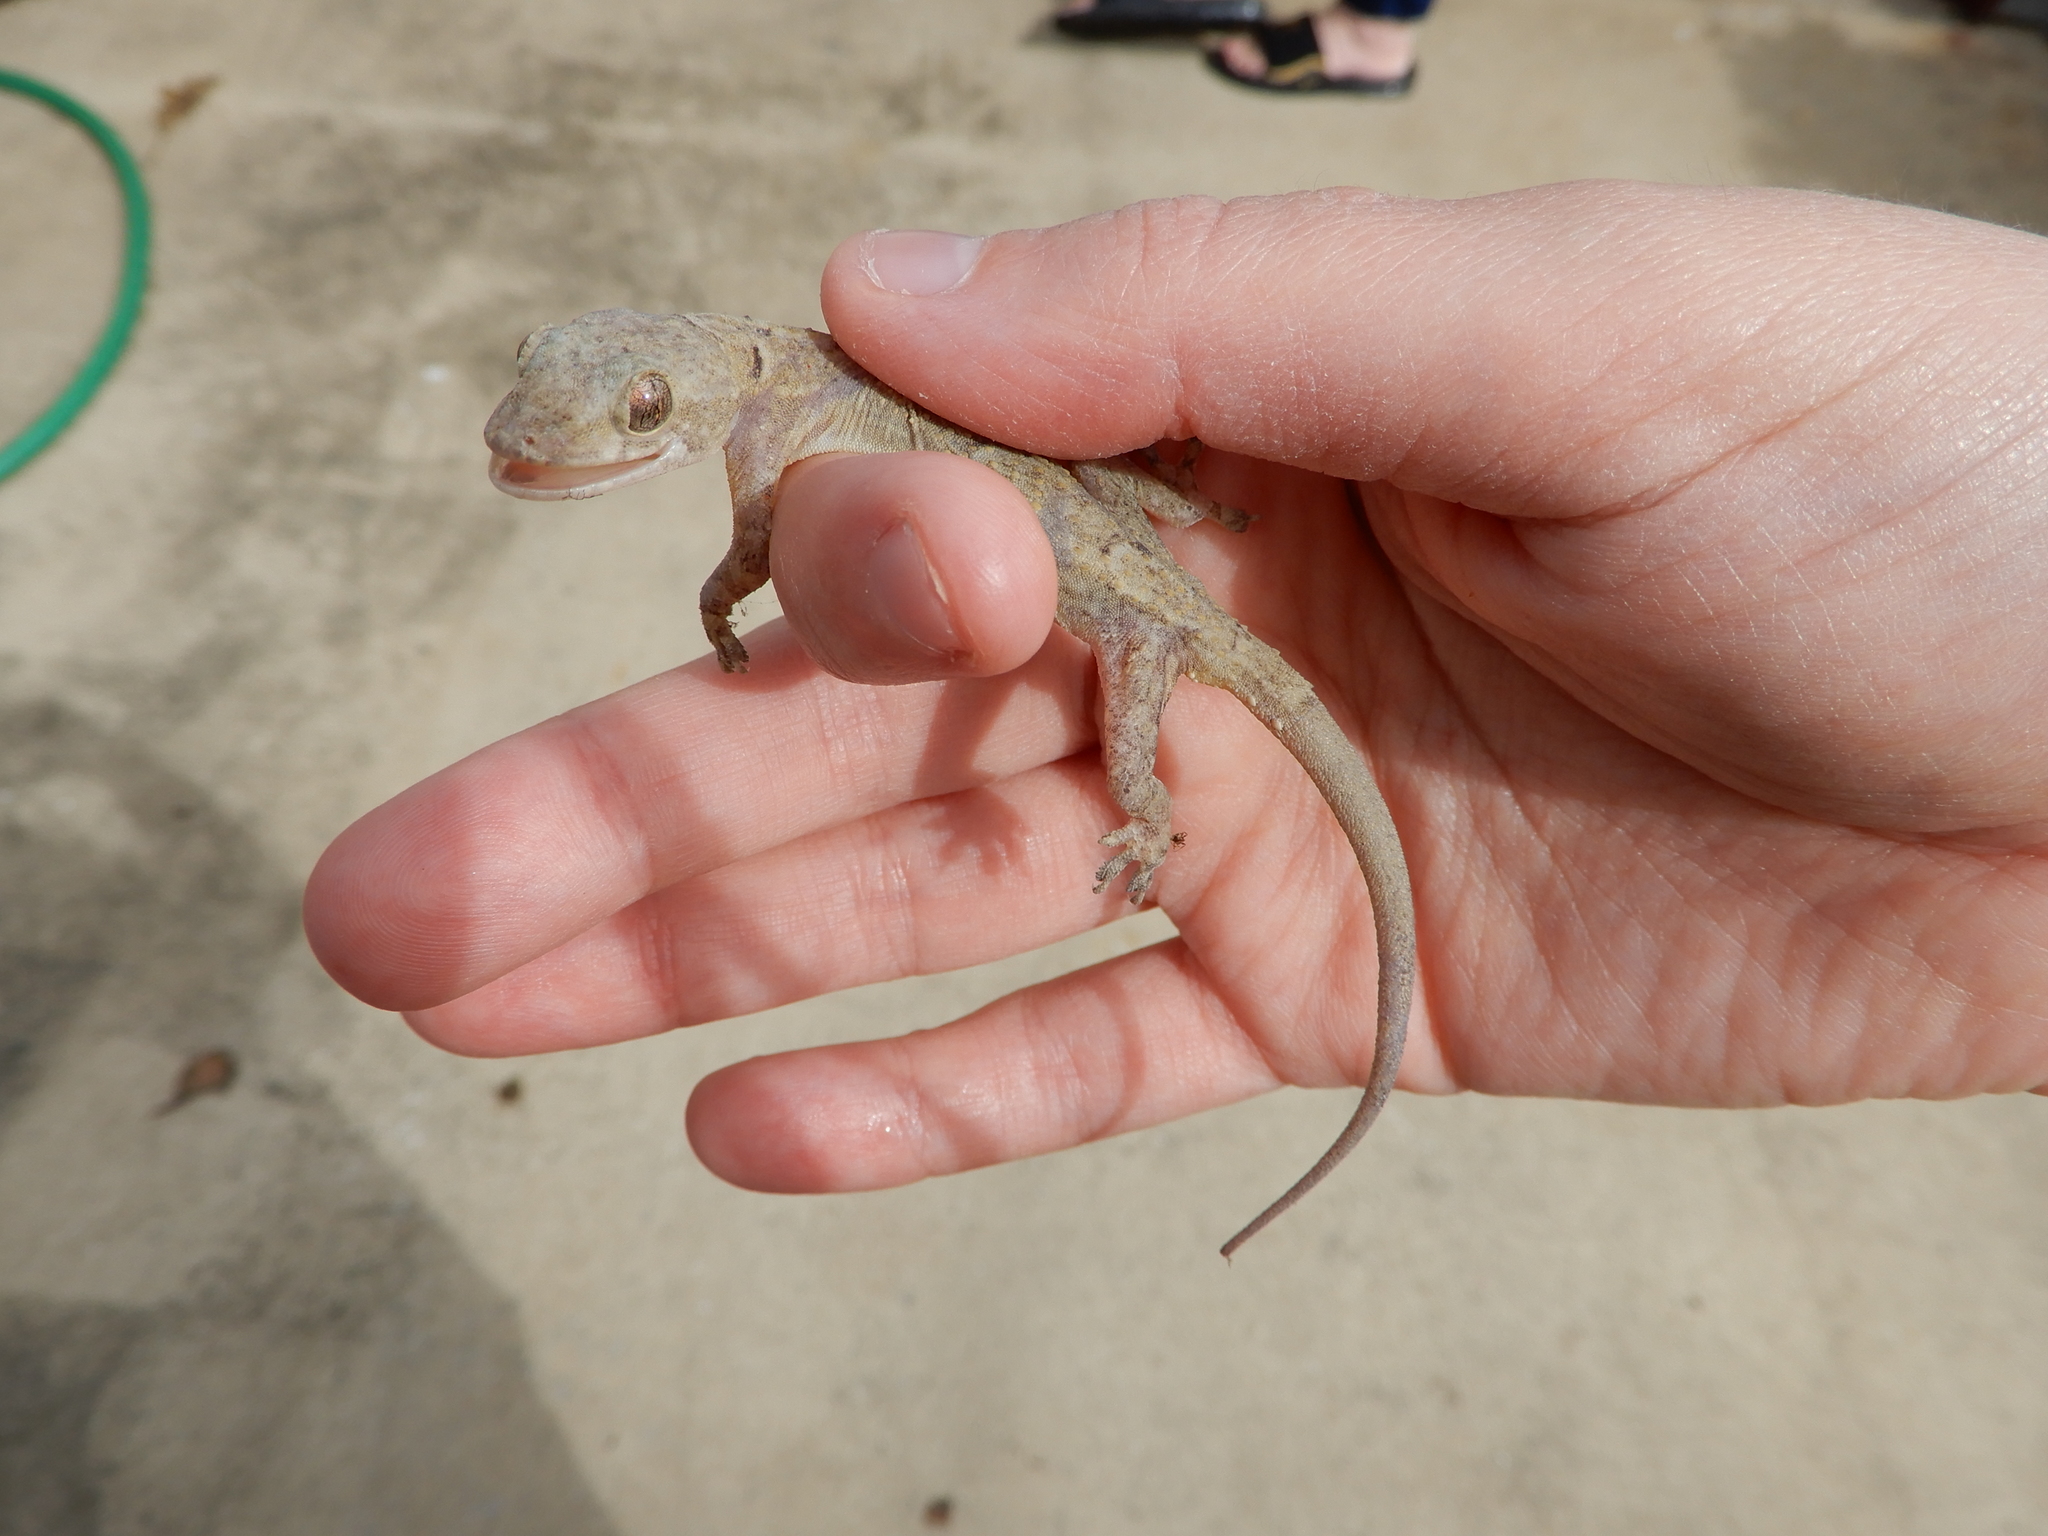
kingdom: Animalia
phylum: Chordata
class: Squamata
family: Gekkonidae
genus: Hemidactylus
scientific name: Hemidactylus mabouia
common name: House gecko
